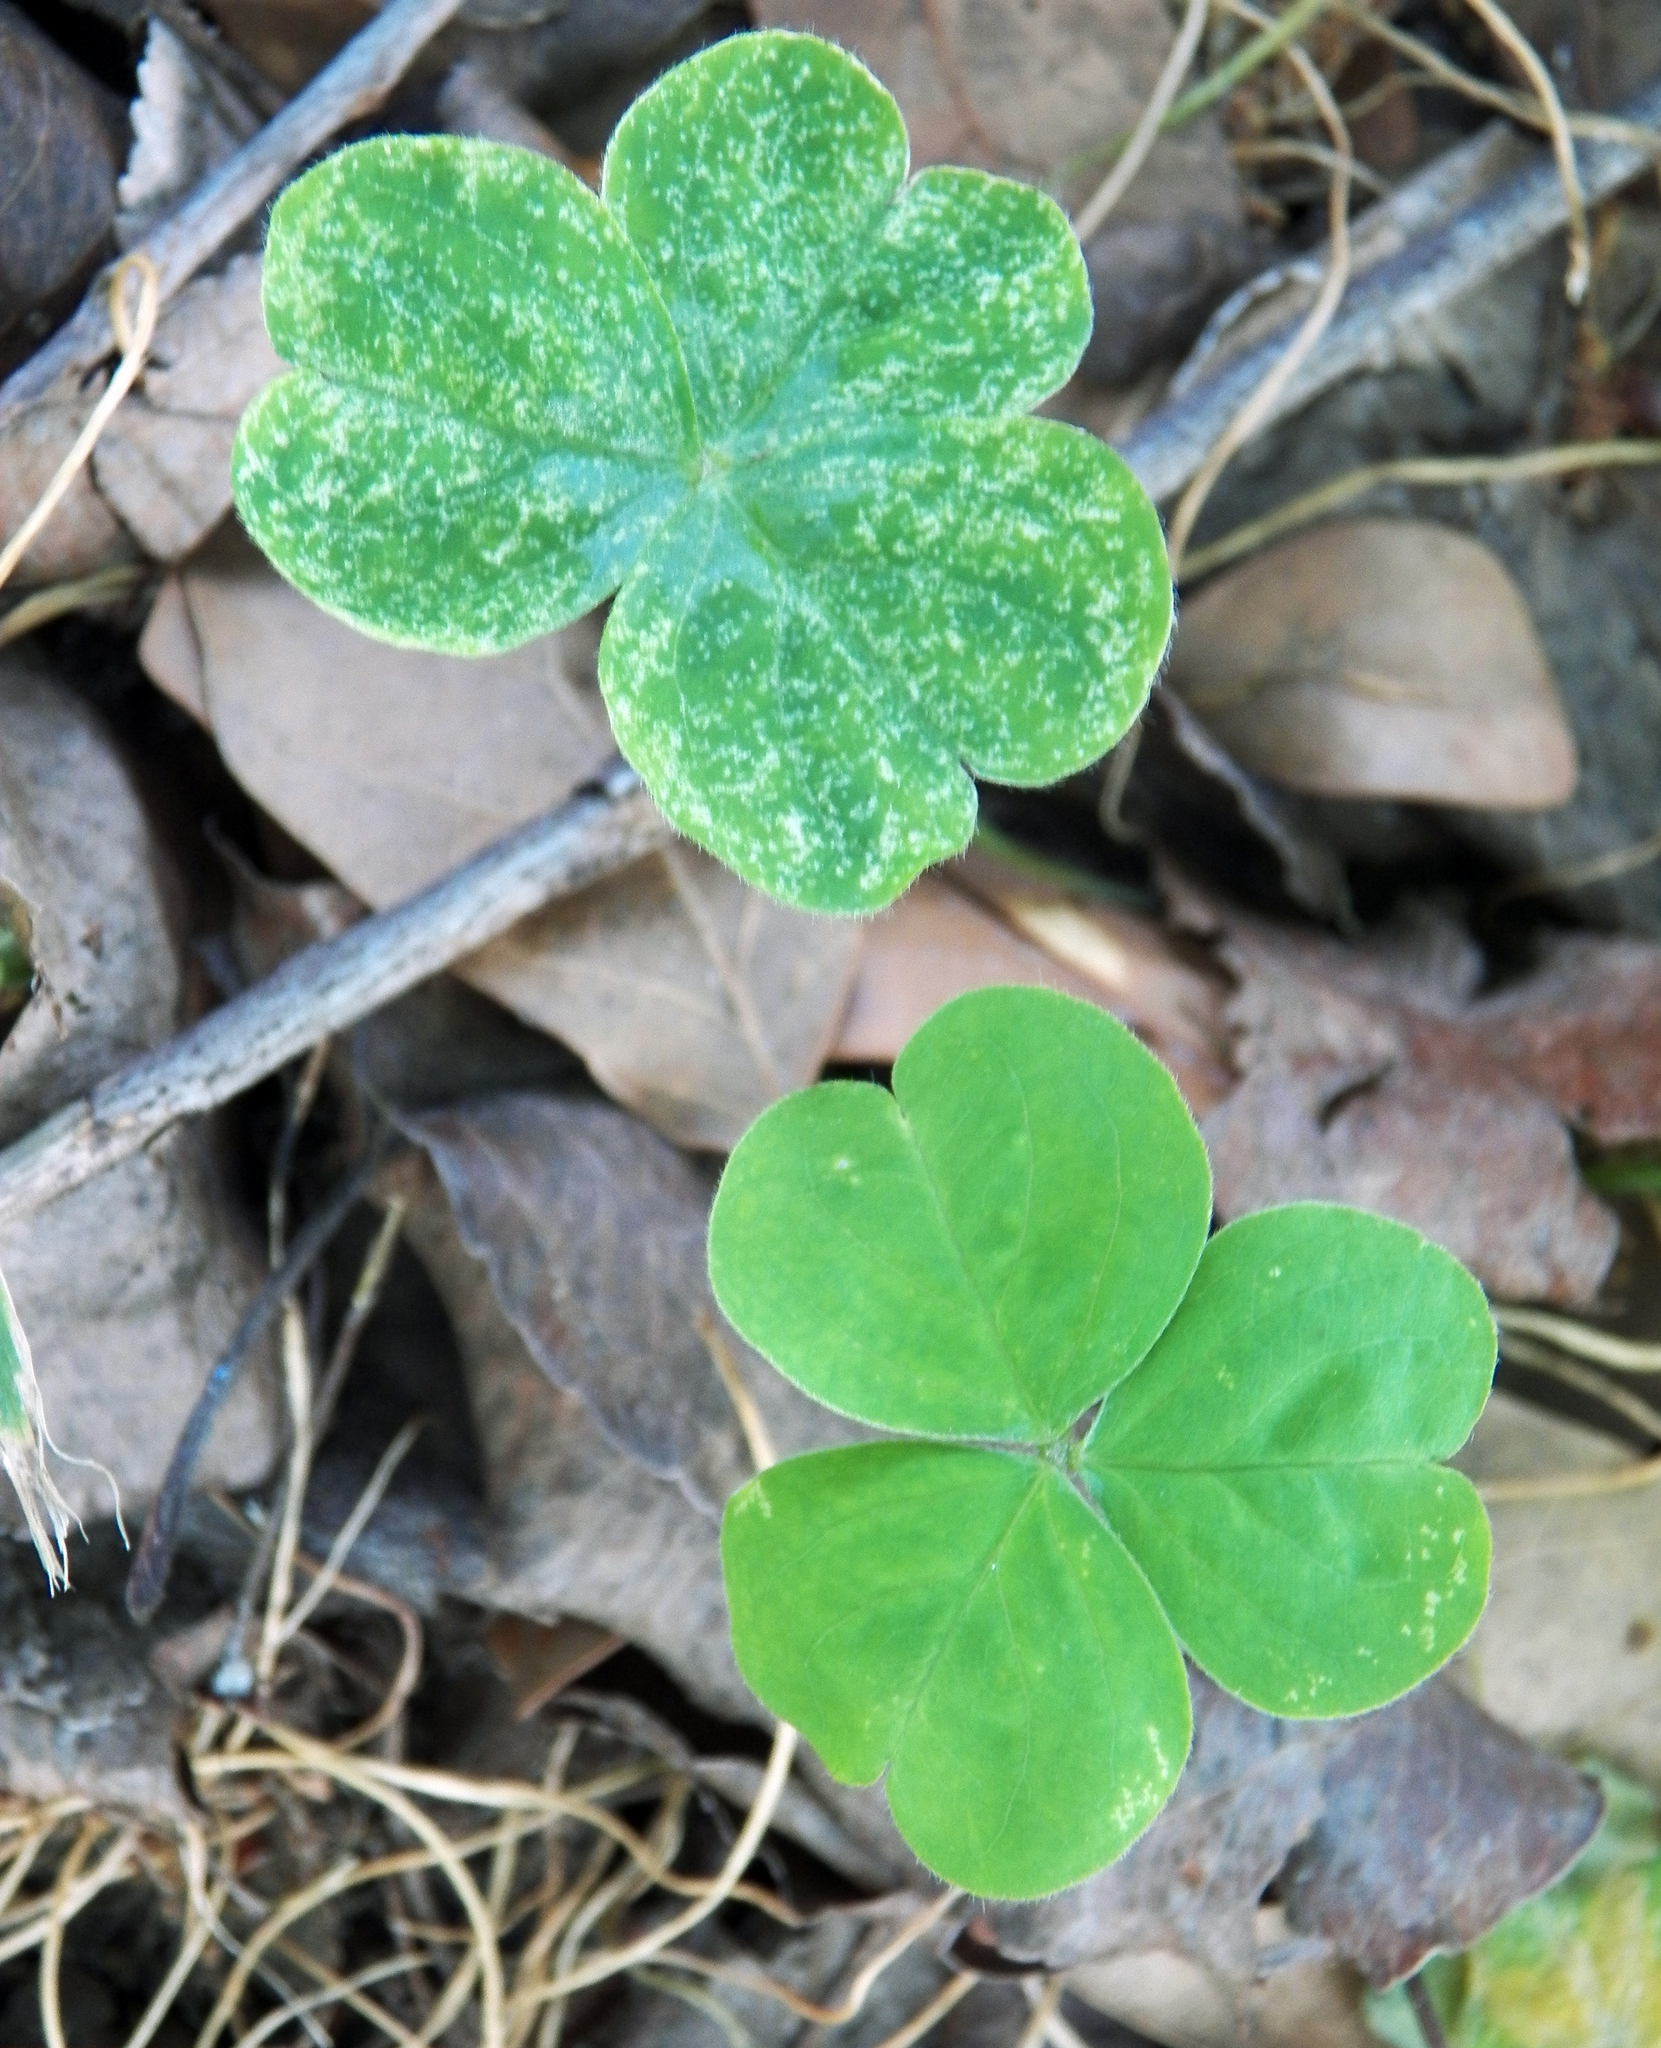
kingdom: Plantae
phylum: Tracheophyta
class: Magnoliopsida
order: Oxalidales
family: Oxalidaceae
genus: Oxalis
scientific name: Oxalis debilis
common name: Large-flowered pink-sorrel
